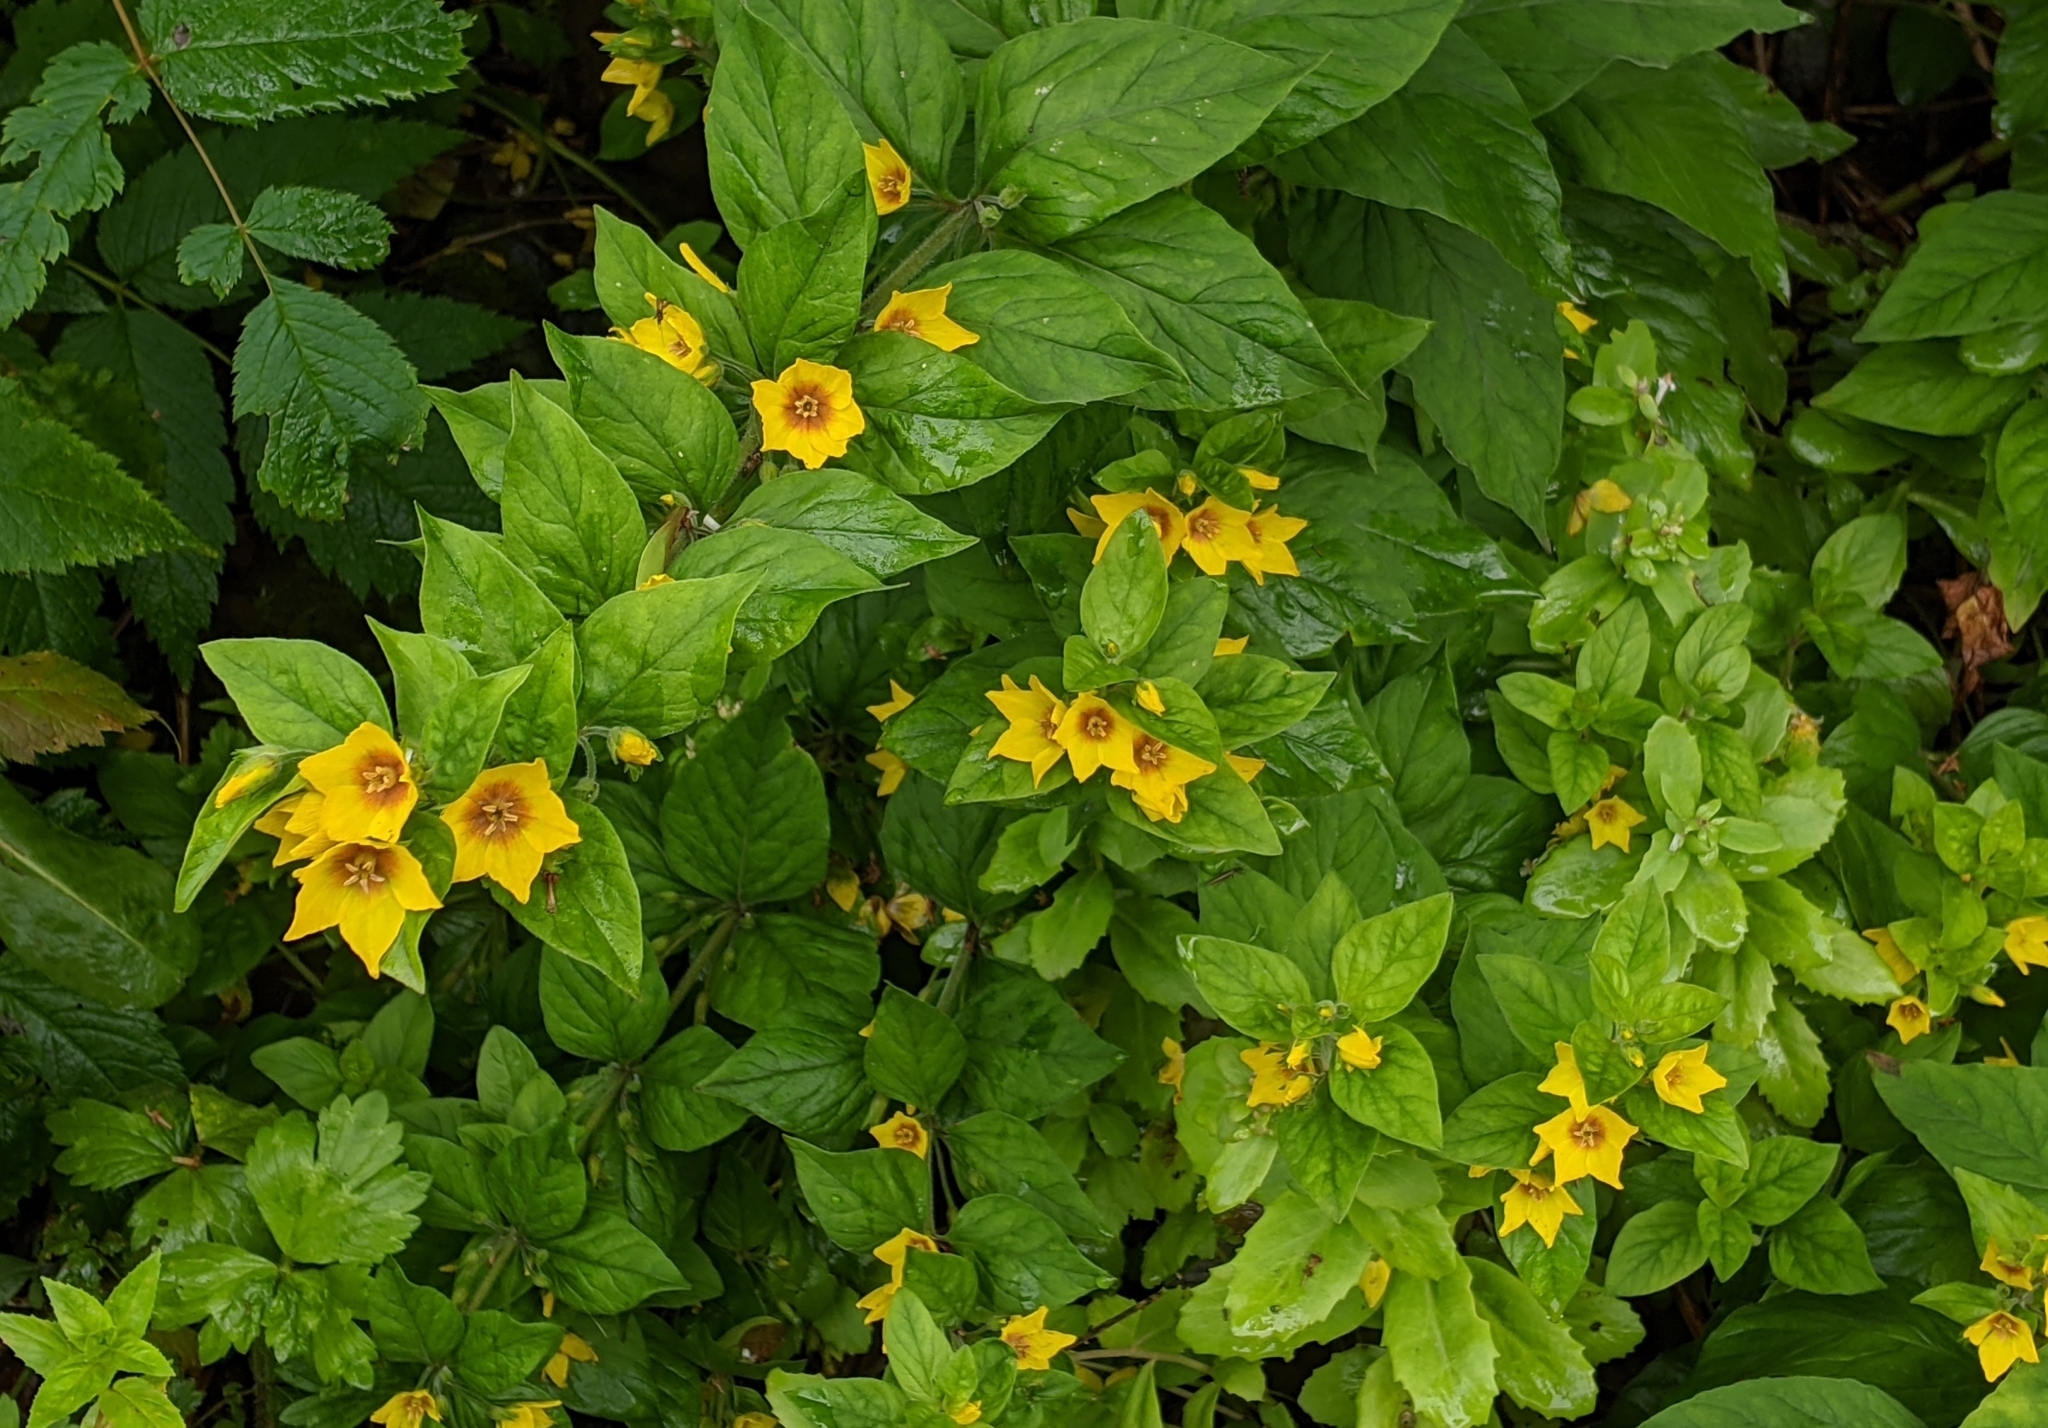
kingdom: Plantae
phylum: Tracheophyta
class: Magnoliopsida
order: Ericales
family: Primulaceae
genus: Lysimachia
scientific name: Lysimachia punctata
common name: Dotted loosestrife
